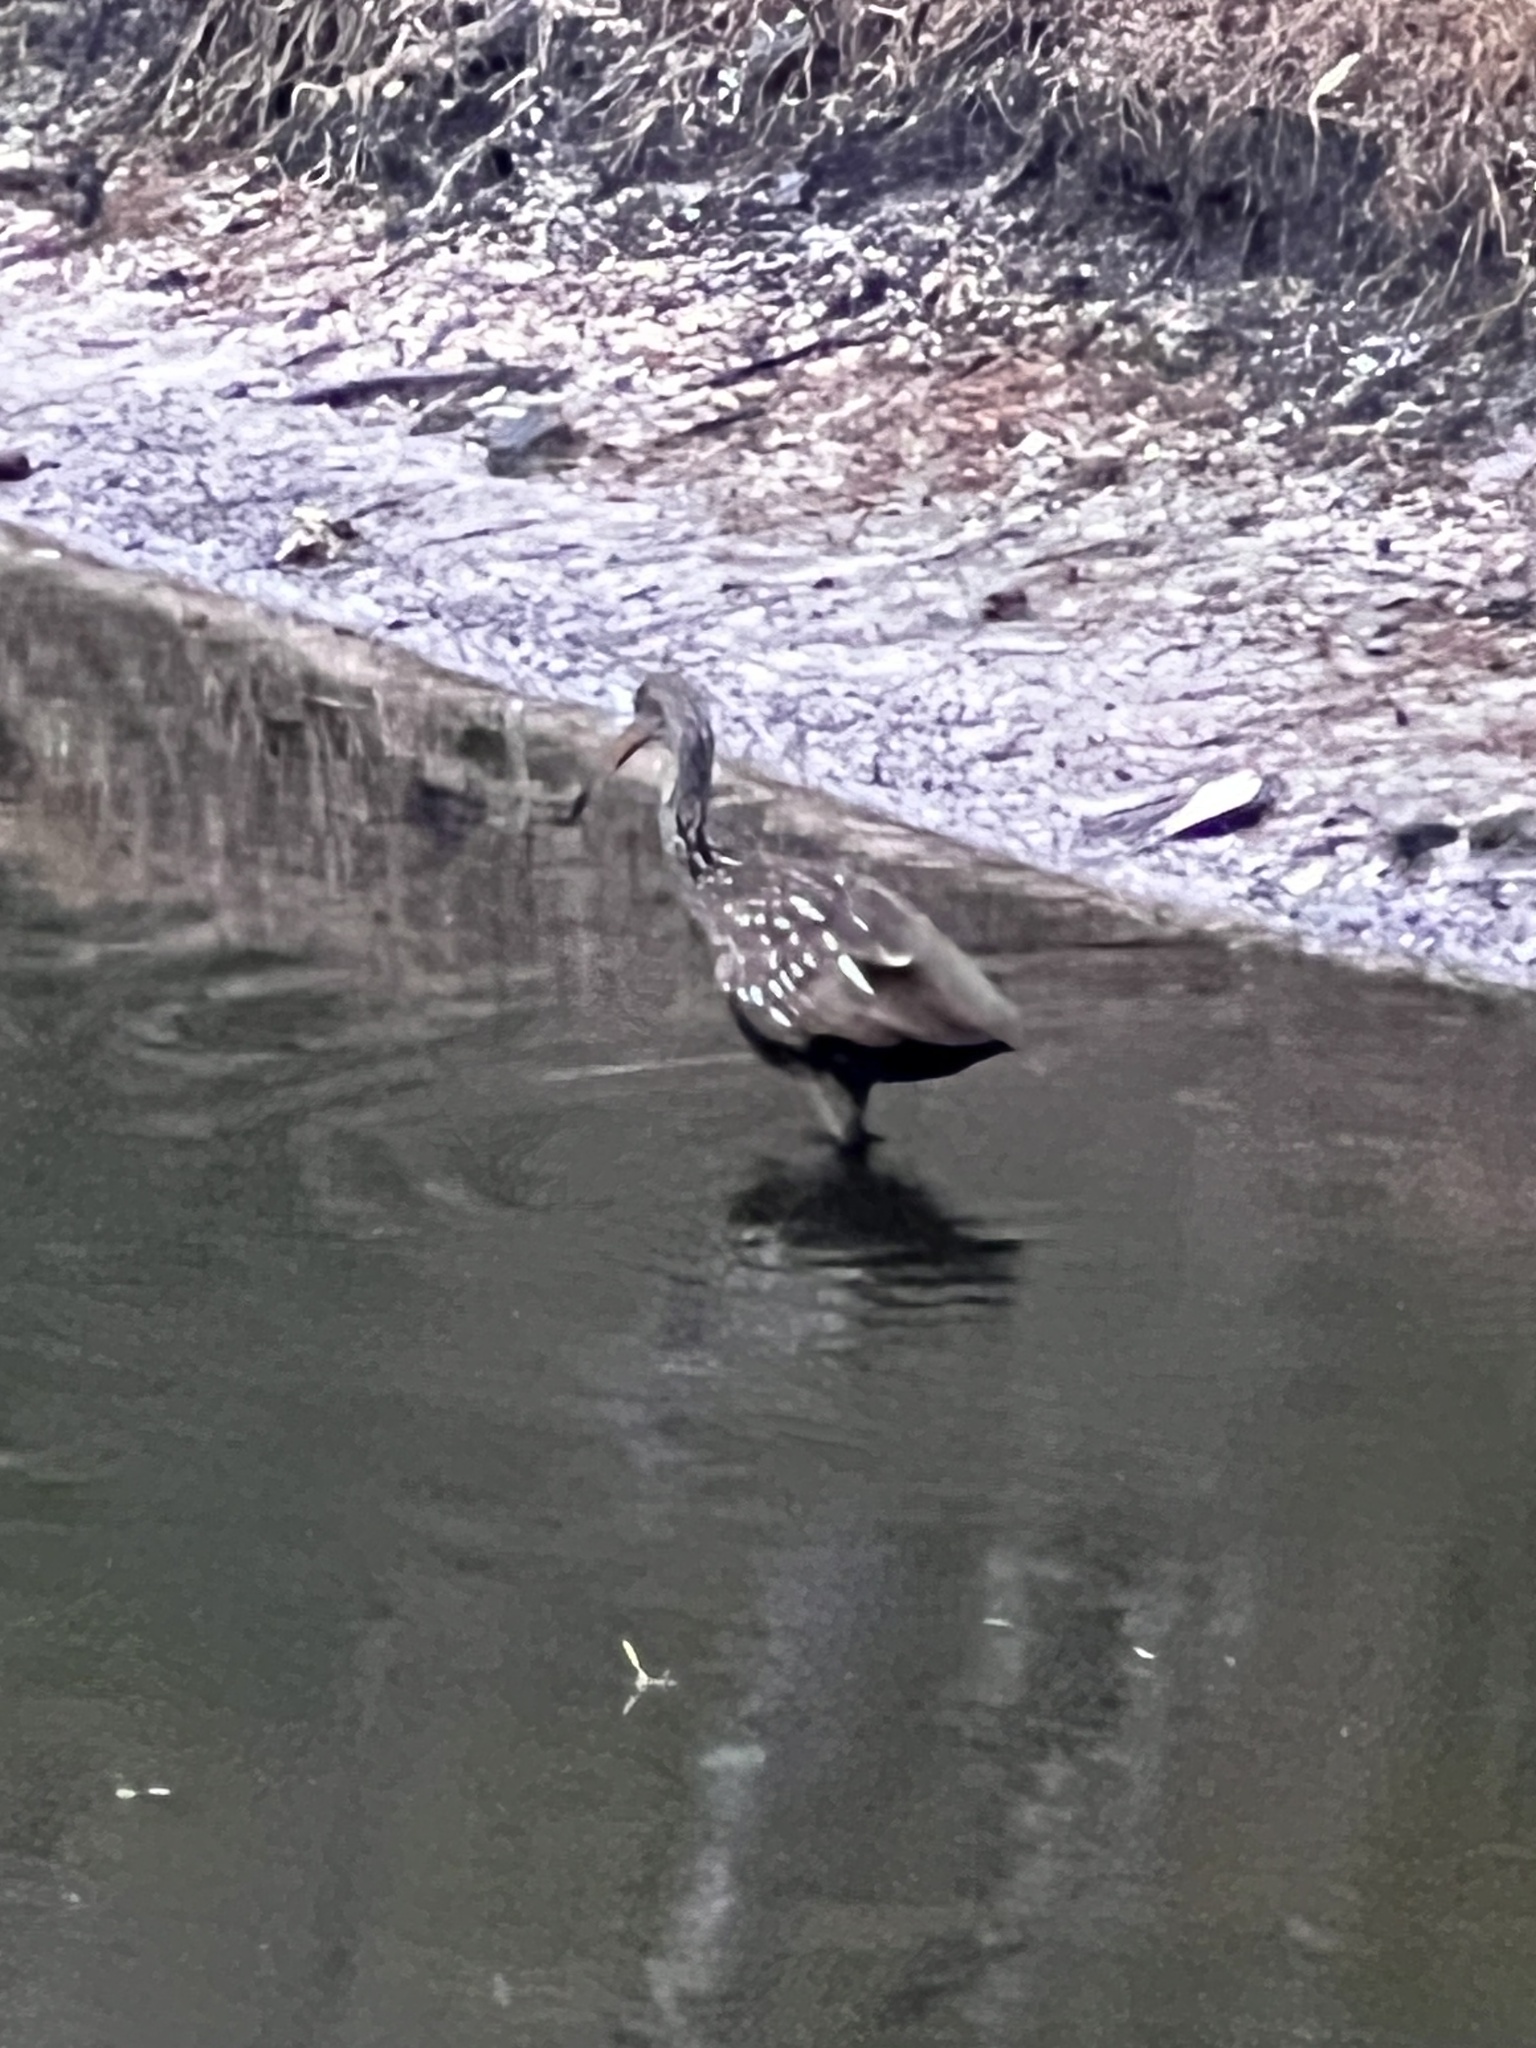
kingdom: Animalia
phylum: Chordata
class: Aves
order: Gruiformes
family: Aramidae
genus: Aramus
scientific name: Aramus guarauna
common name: Limpkin
